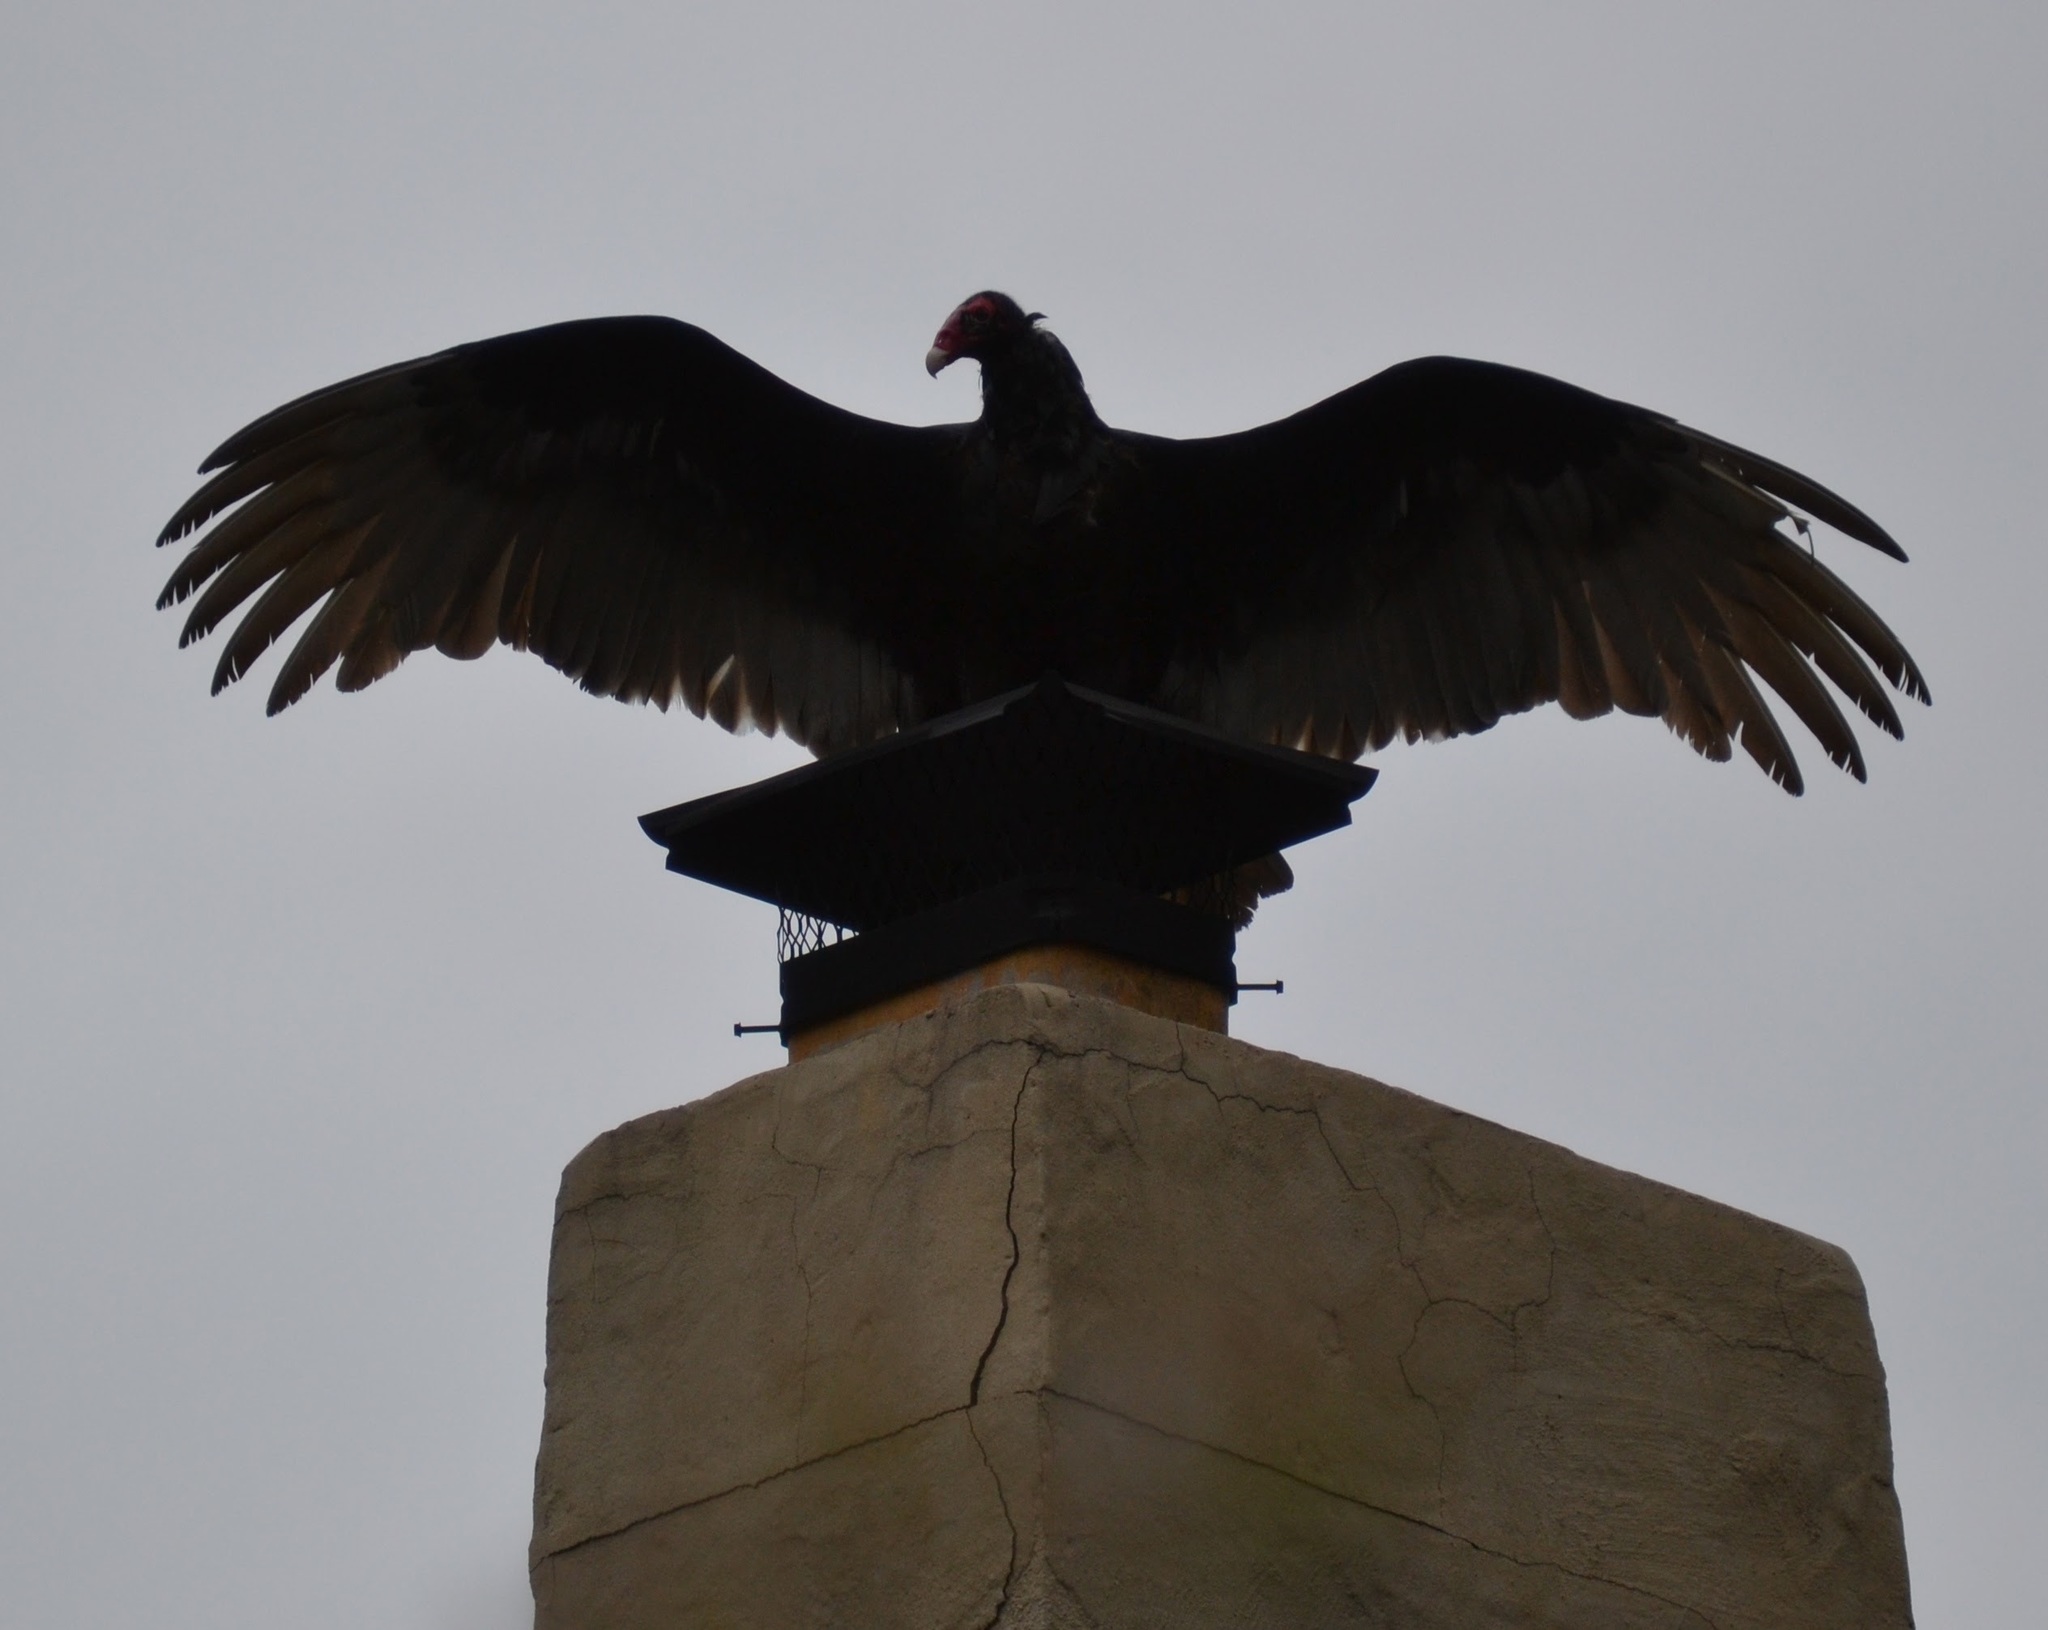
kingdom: Animalia
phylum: Chordata
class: Aves
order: Accipitriformes
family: Cathartidae
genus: Cathartes
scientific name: Cathartes aura
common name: Turkey vulture
